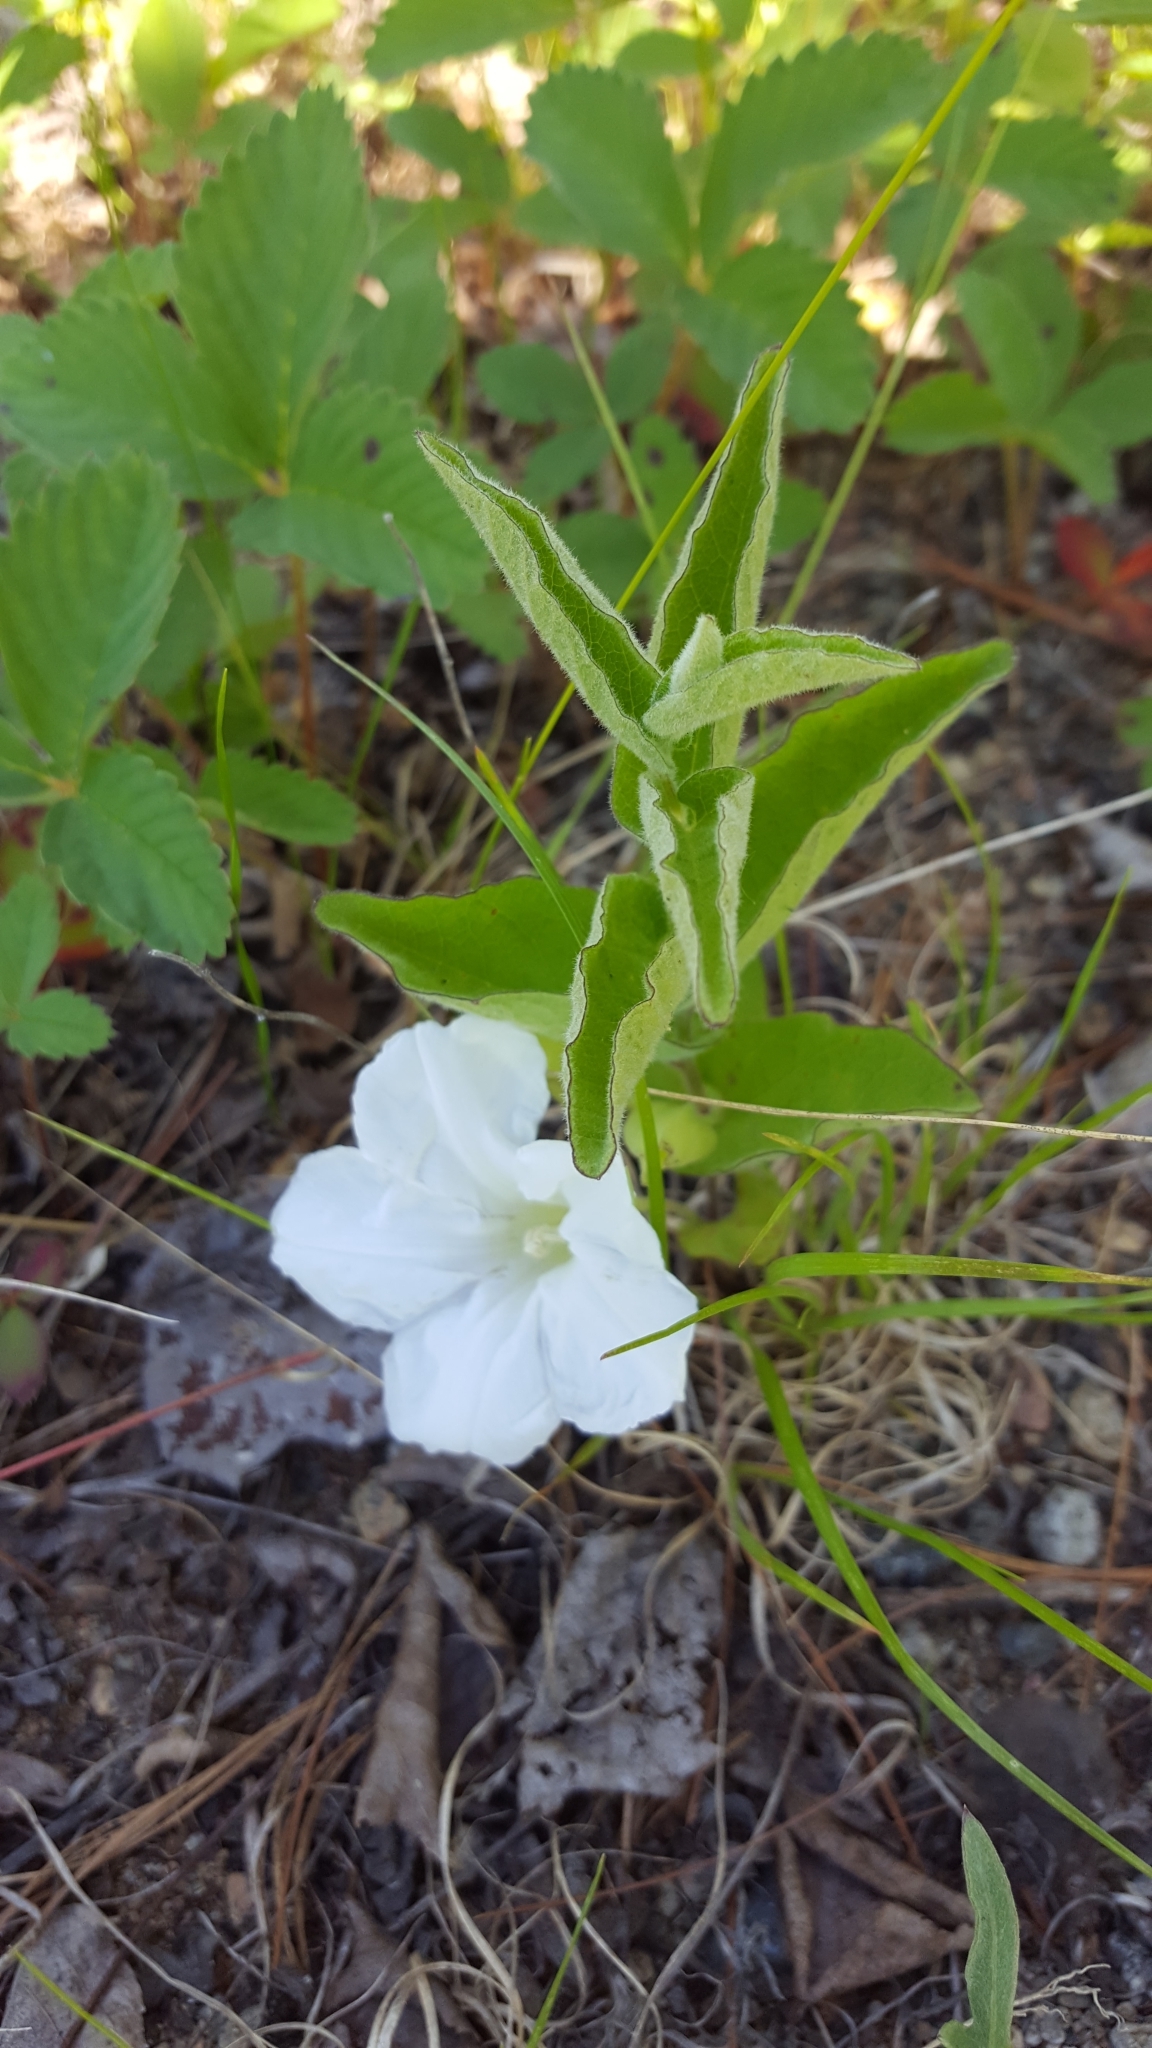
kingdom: Plantae
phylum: Tracheophyta
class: Magnoliopsida
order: Solanales
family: Convolvulaceae
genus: Calystegia
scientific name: Calystegia spithamaea
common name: Dwarf bindweed
